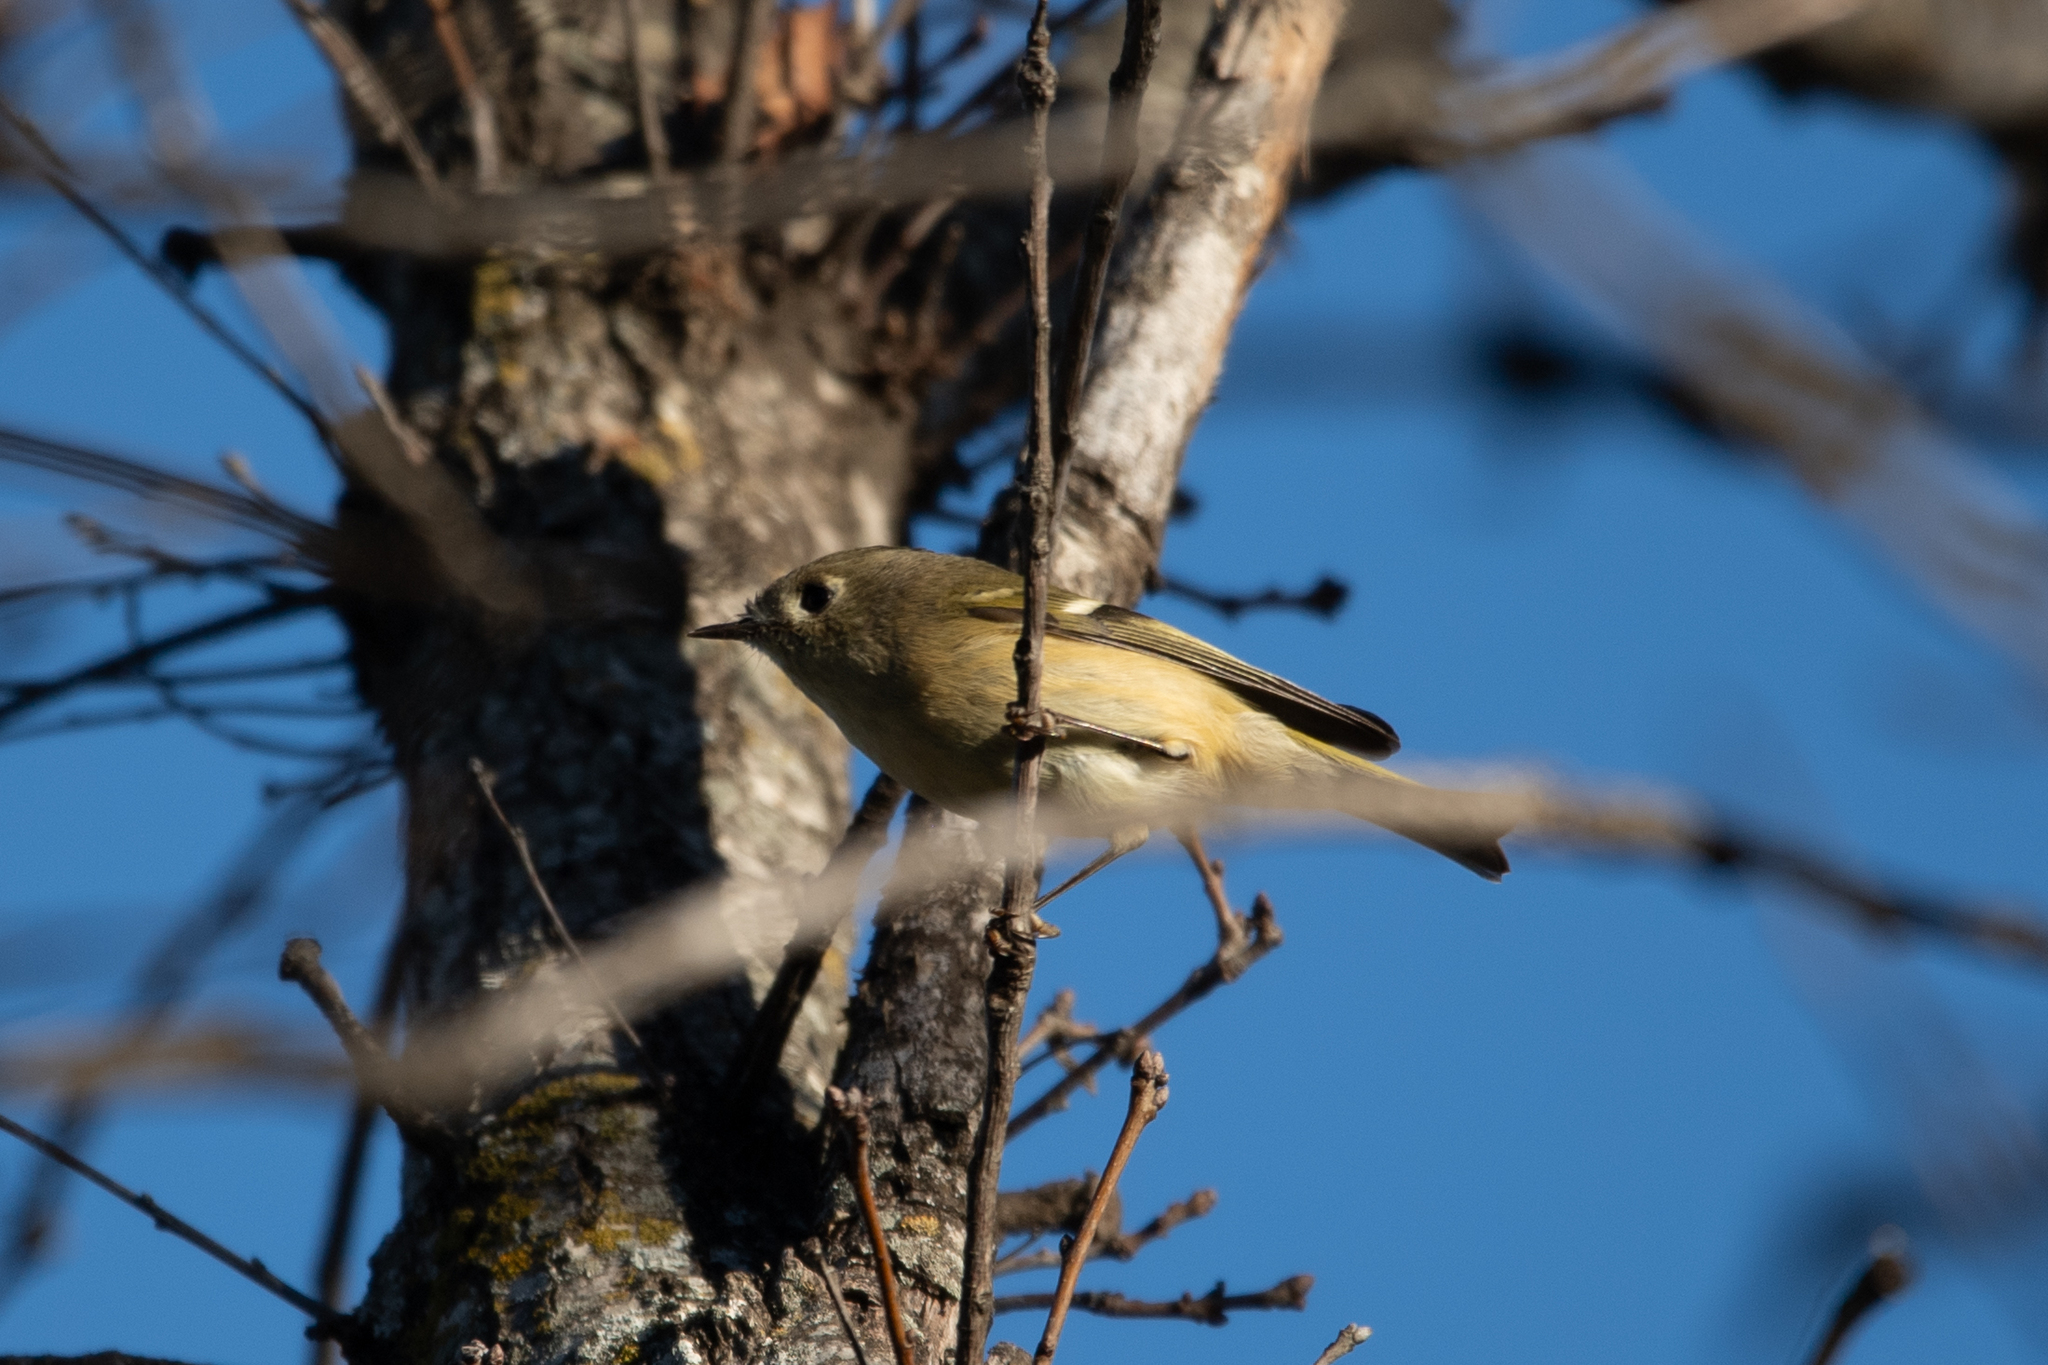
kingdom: Animalia
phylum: Chordata
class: Aves
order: Passeriformes
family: Regulidae
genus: Regulus
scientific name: Regulus calendula
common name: Ruby-crowned kinglet
